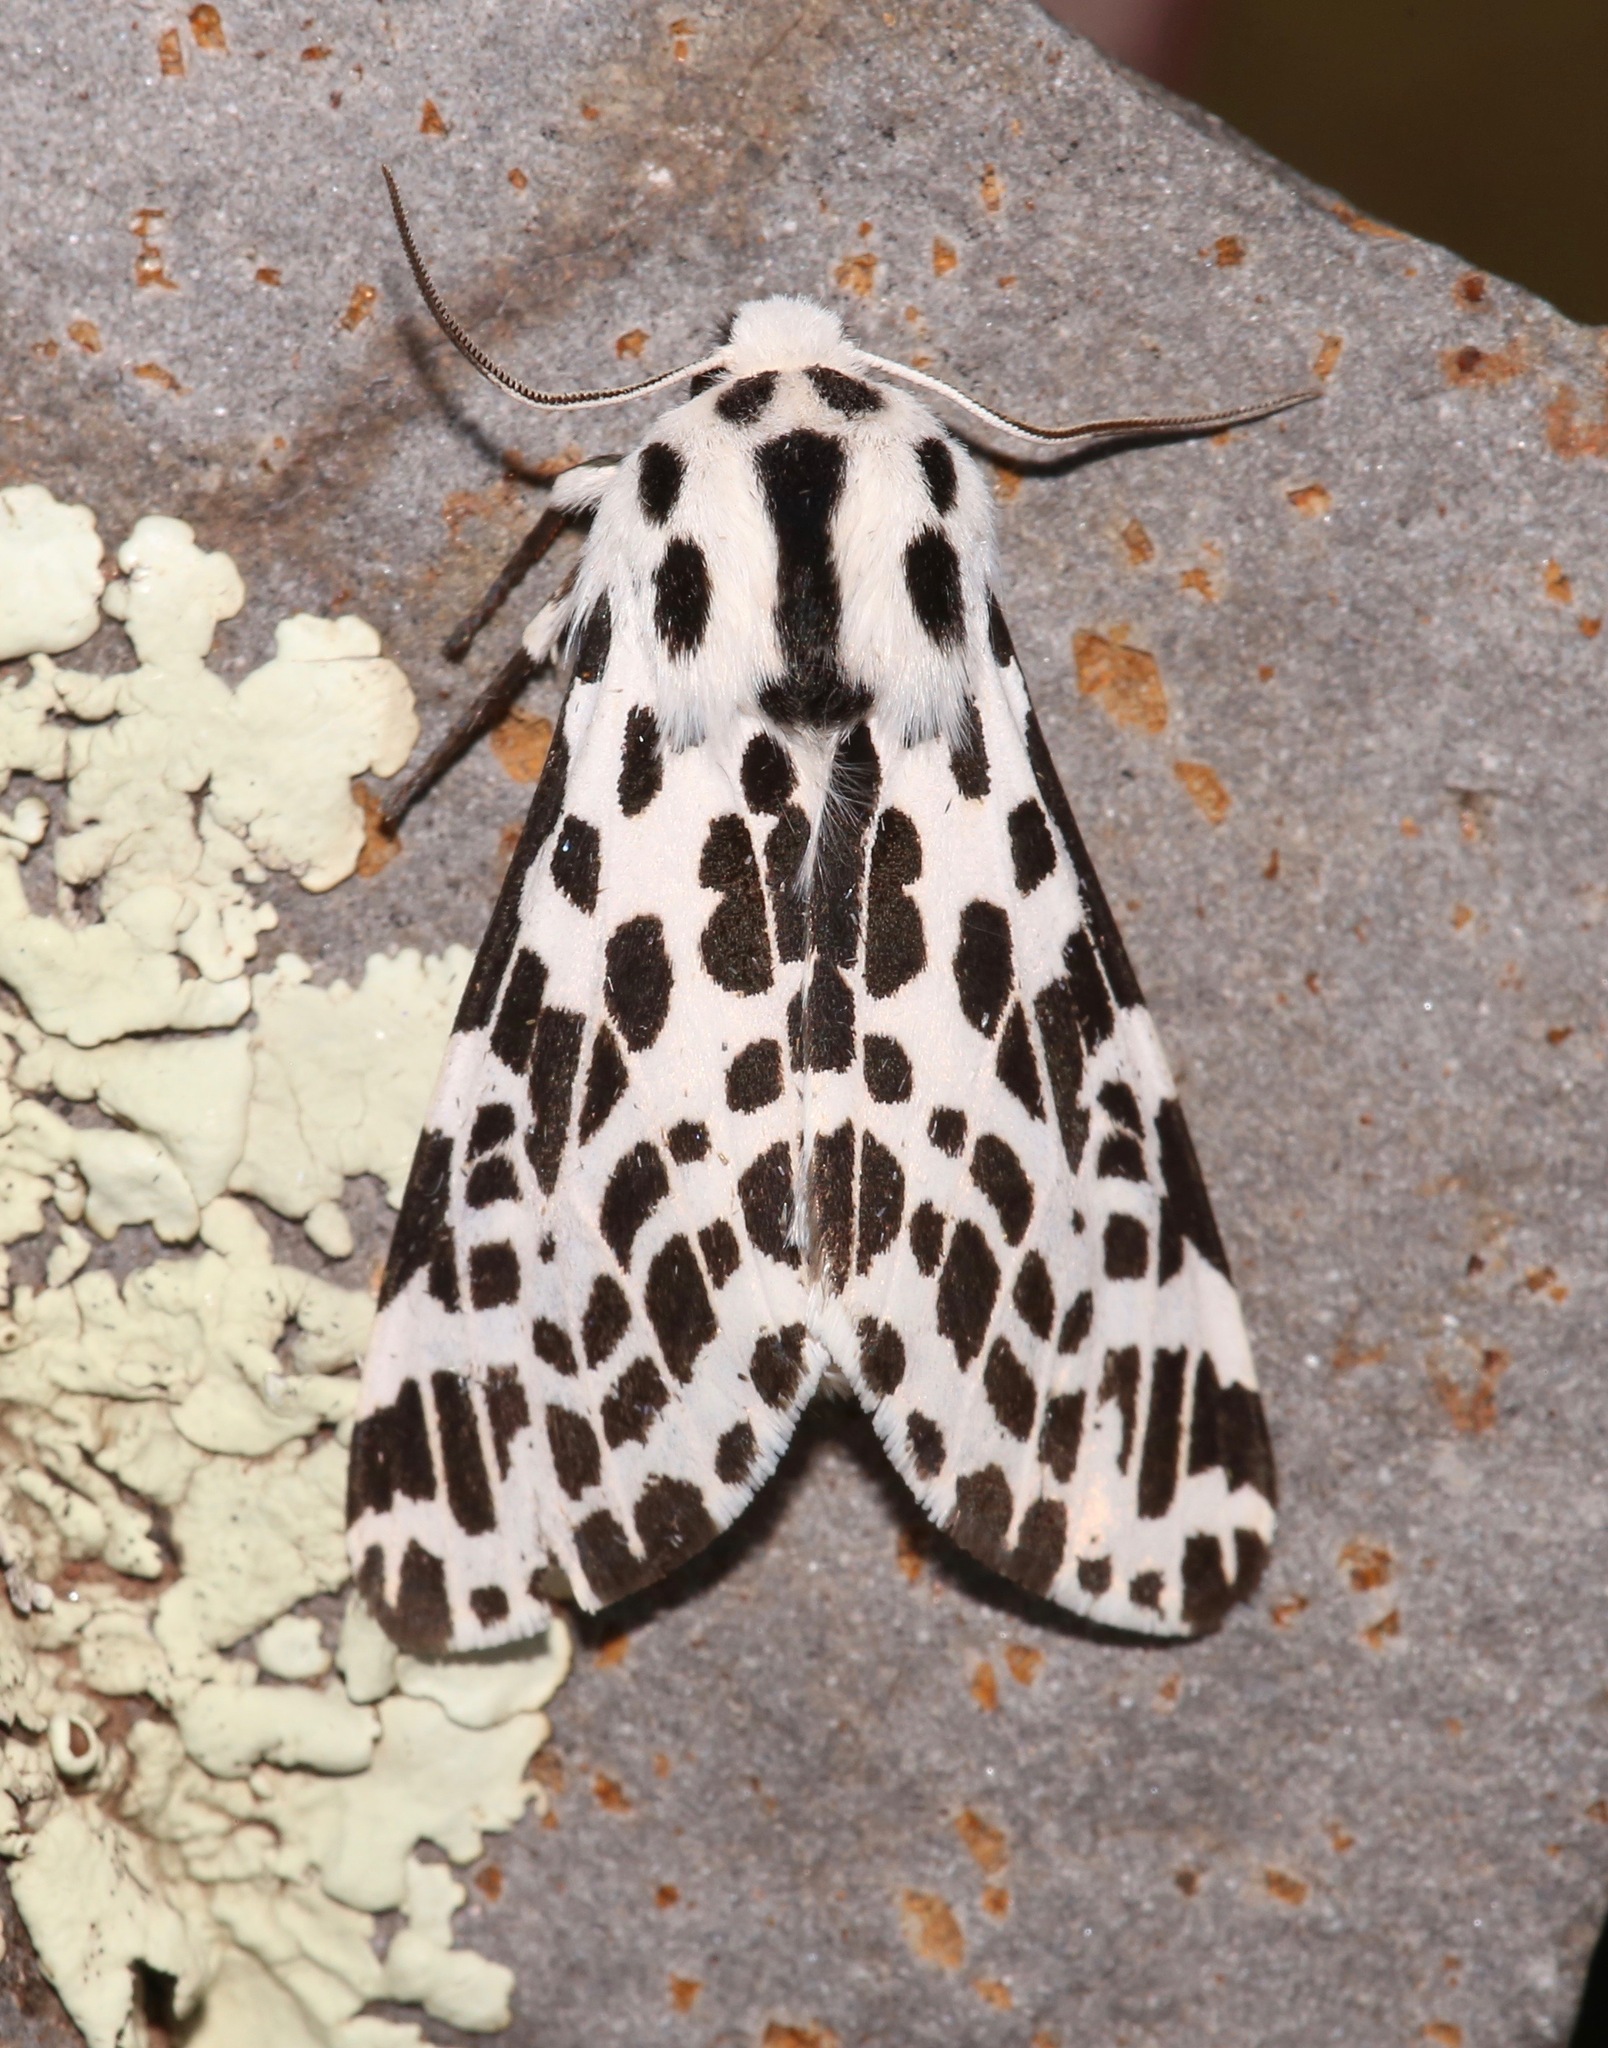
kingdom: Animalia
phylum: Arthropoda
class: Insecta
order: Lepidoptera
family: Erebidae
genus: Hypercompe
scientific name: Hypercompe permaculata
